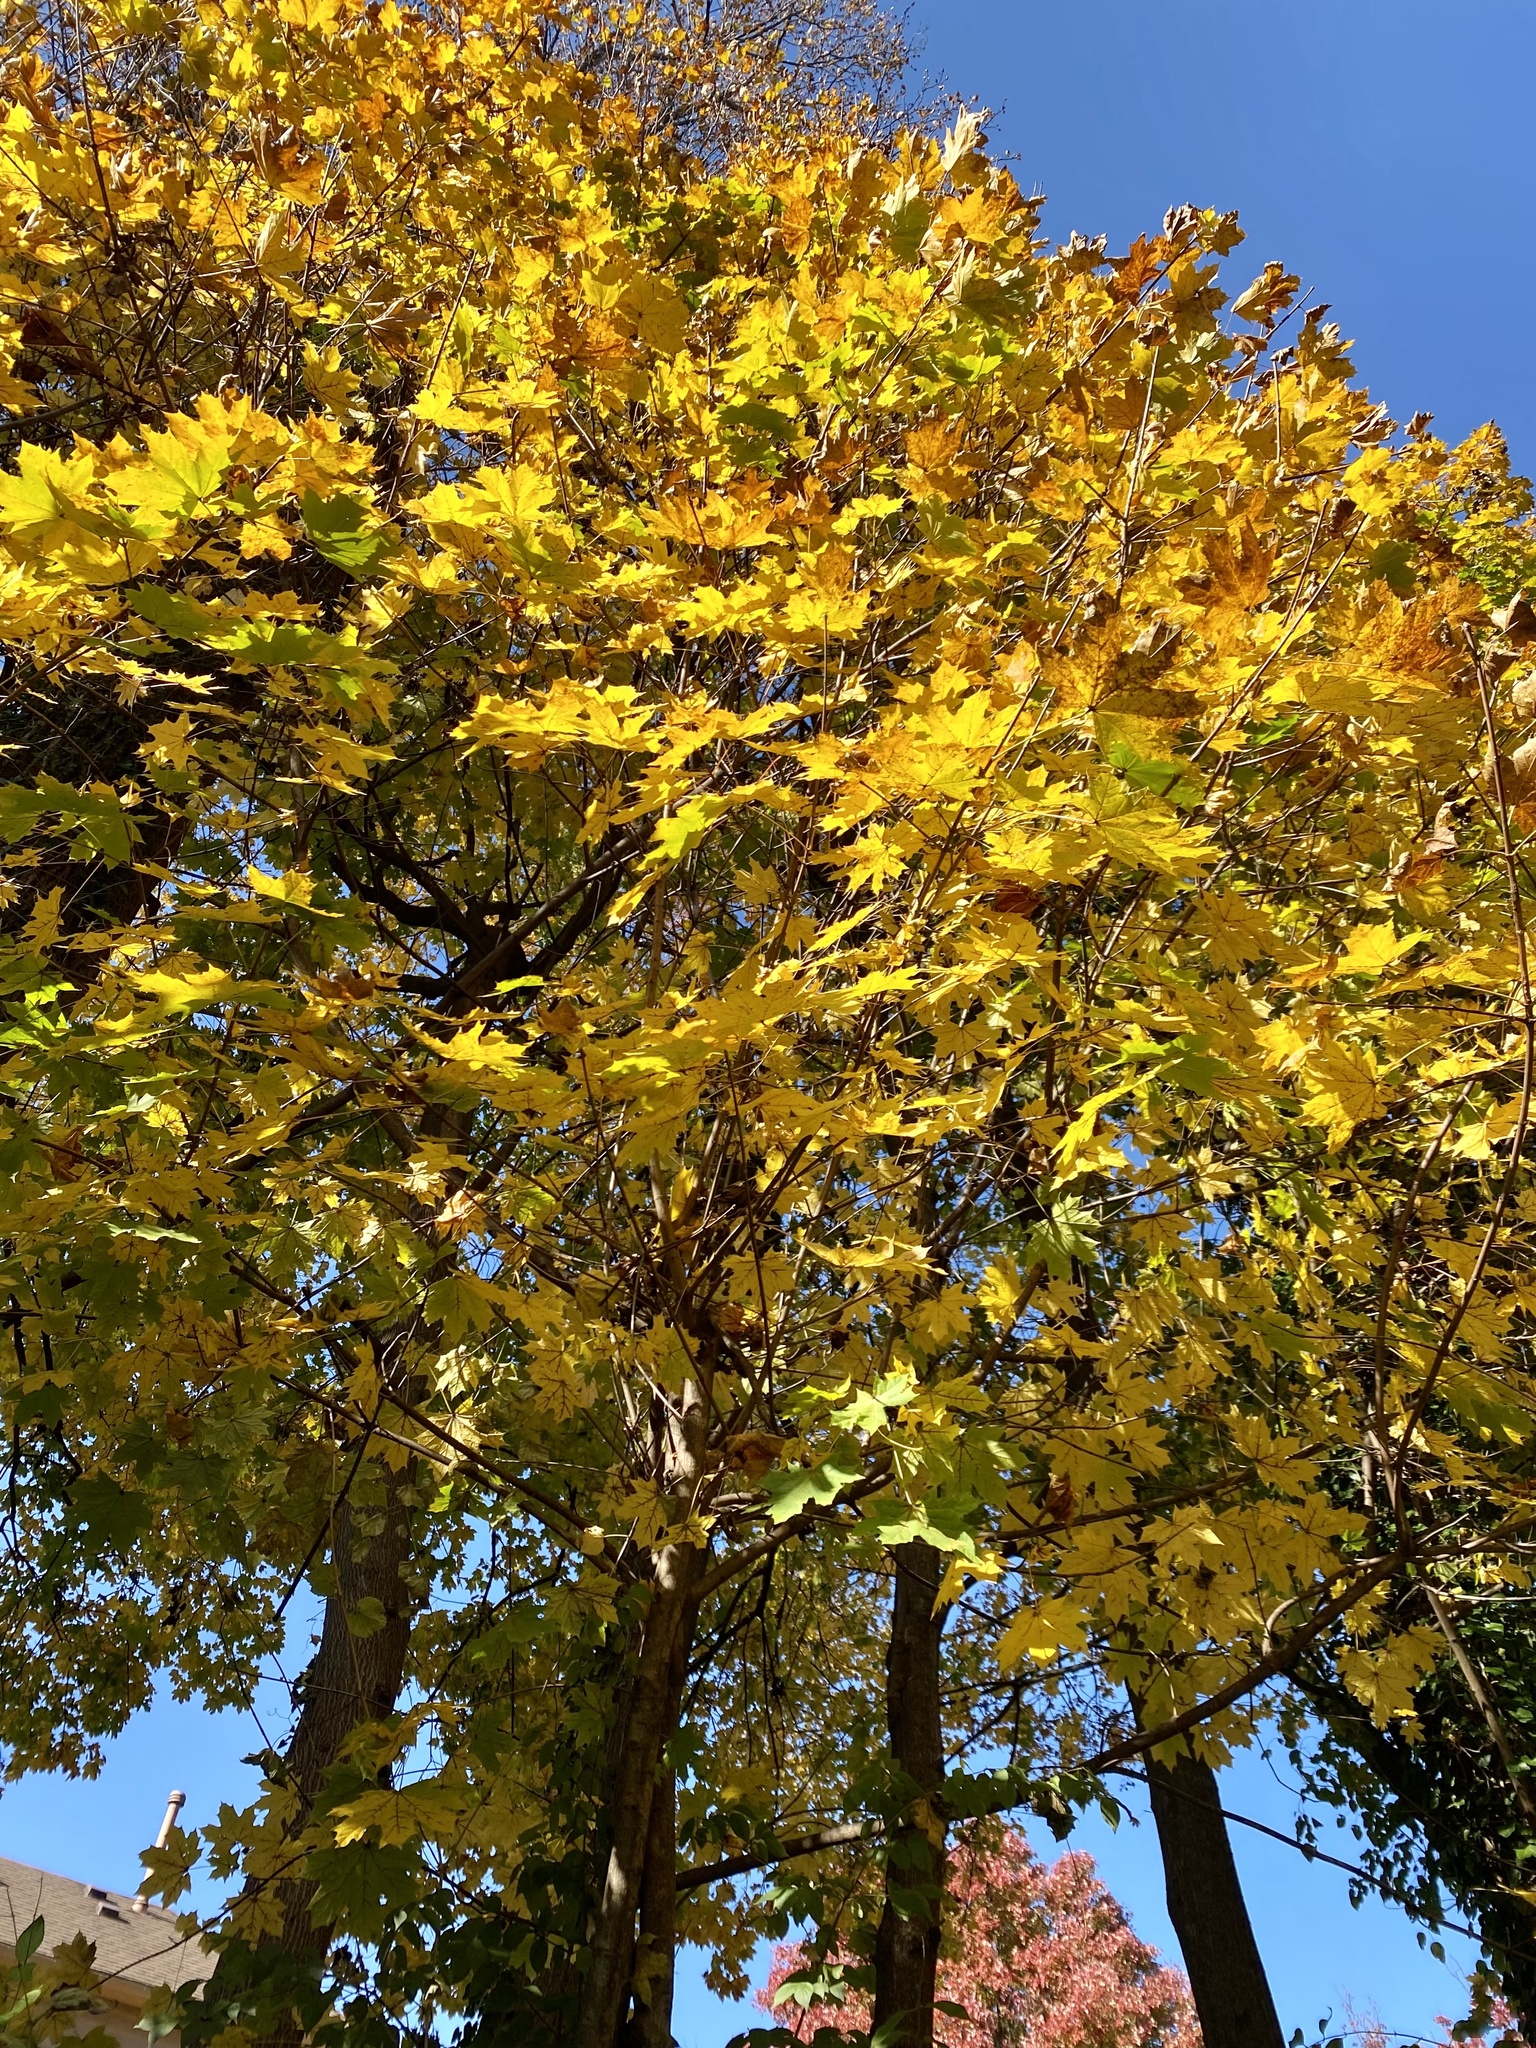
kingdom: Plantae
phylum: Tracheophyta
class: Magnoliopsida
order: Sapindales
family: Sapindaceae
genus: Acer
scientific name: Acer platanoides
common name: Norway maple
